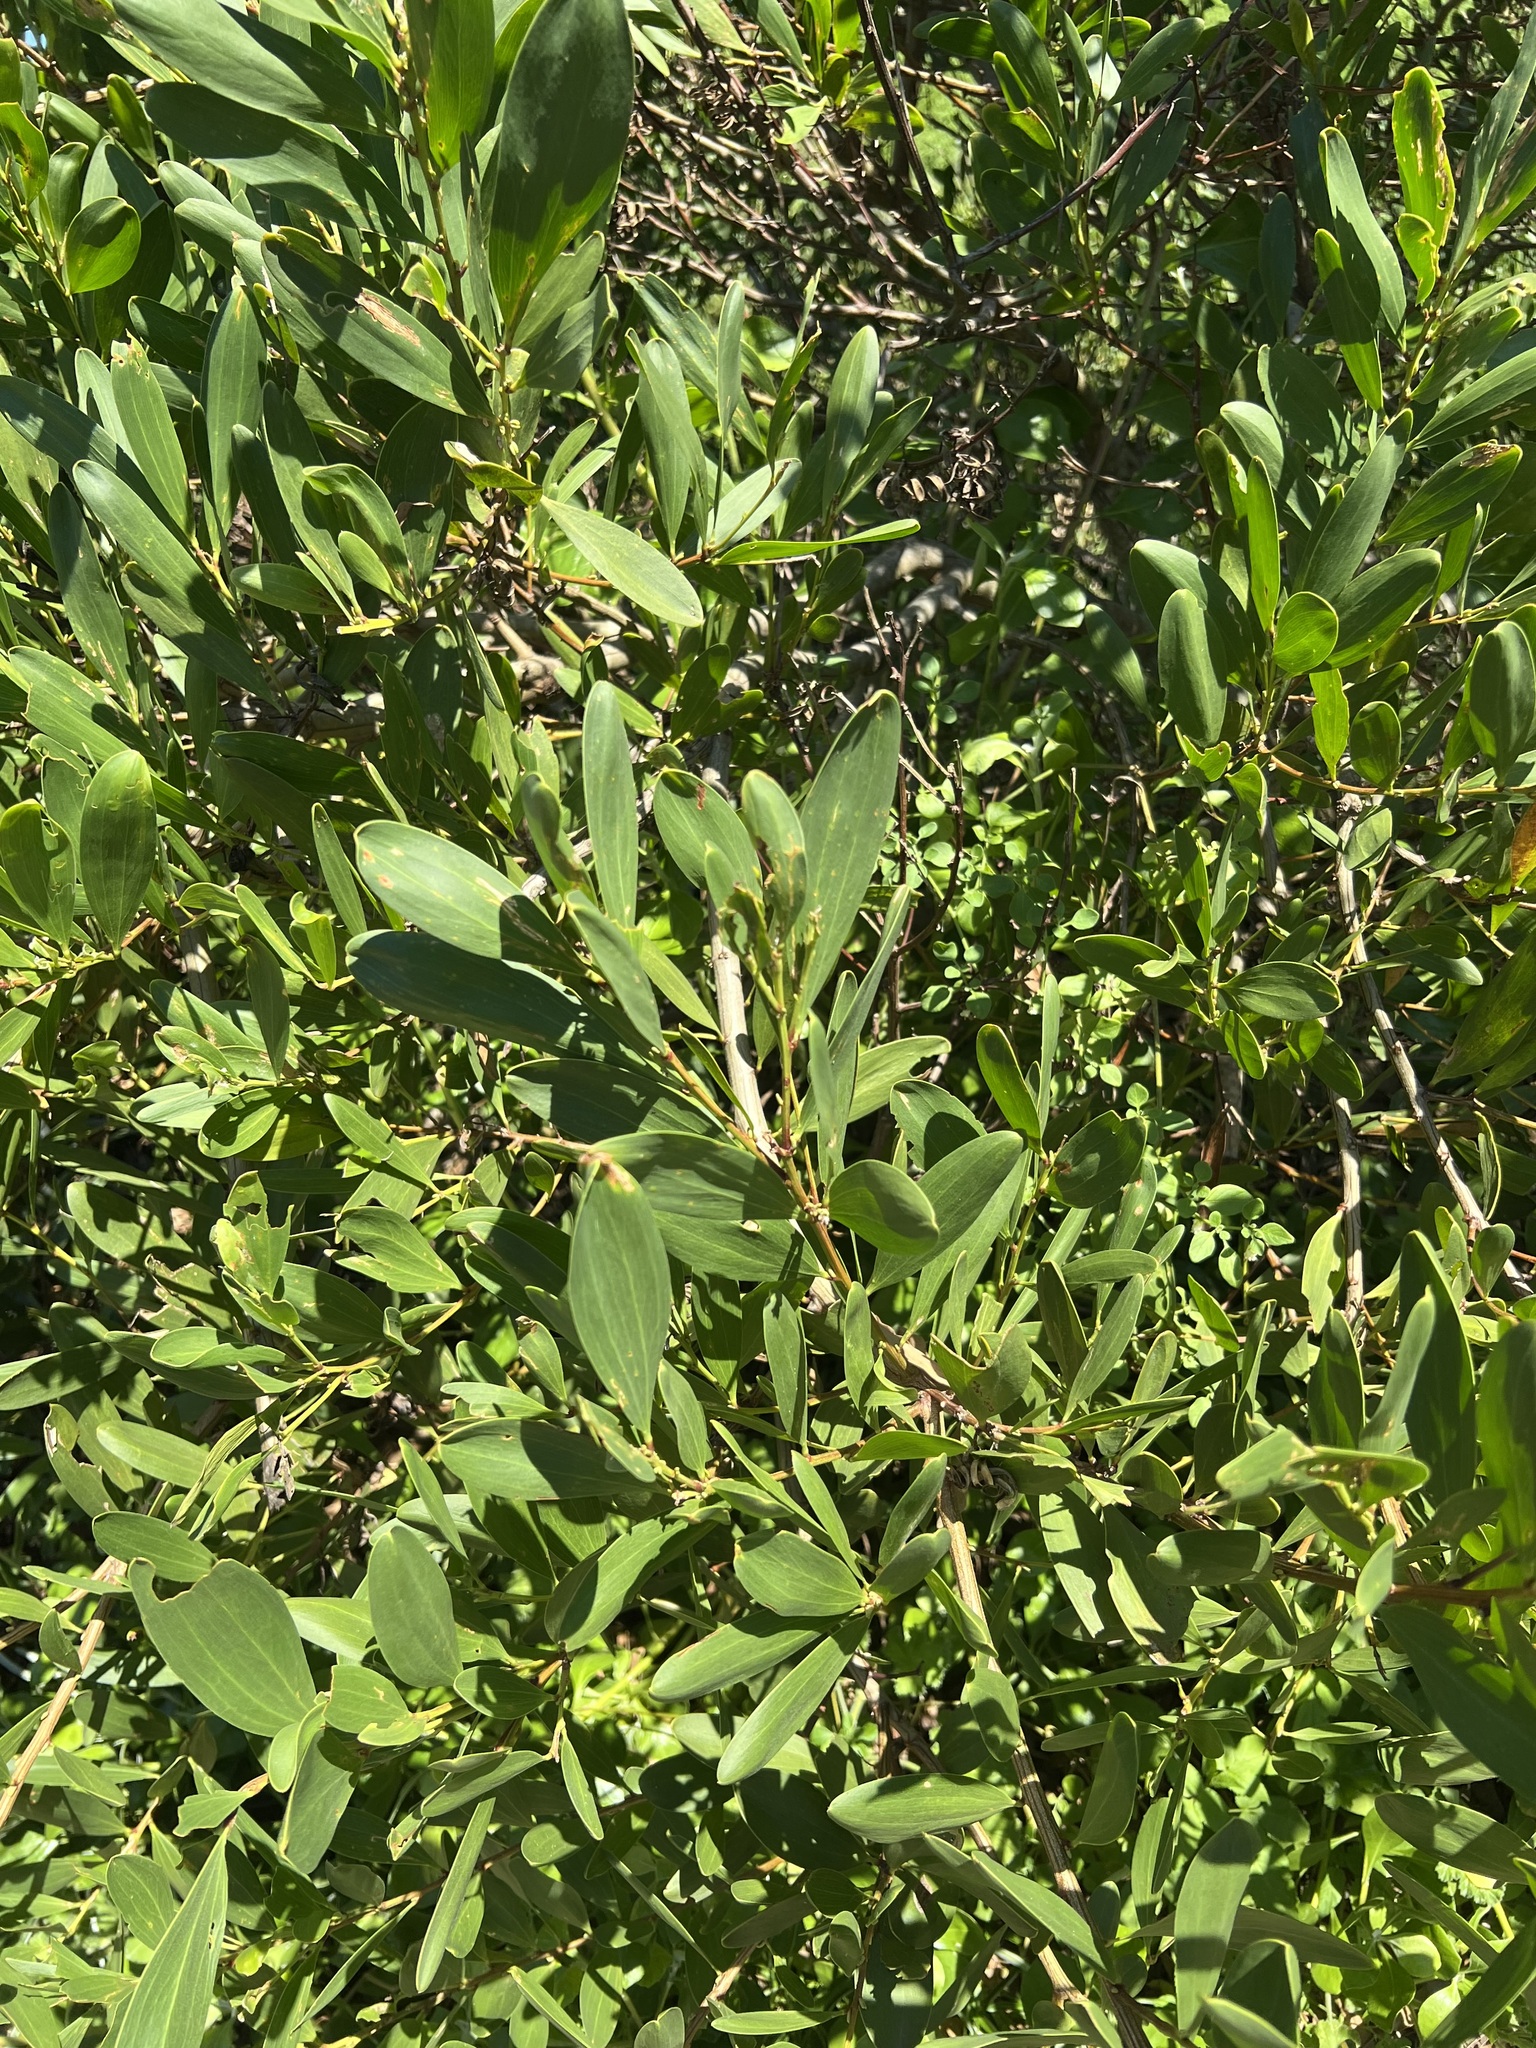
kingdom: Plantae
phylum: Tracheophyta
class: Magnoliopsida
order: Fabales
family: Fabaceae
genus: Acacia
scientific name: Acacia longifolia
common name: Sydney golden wattle
